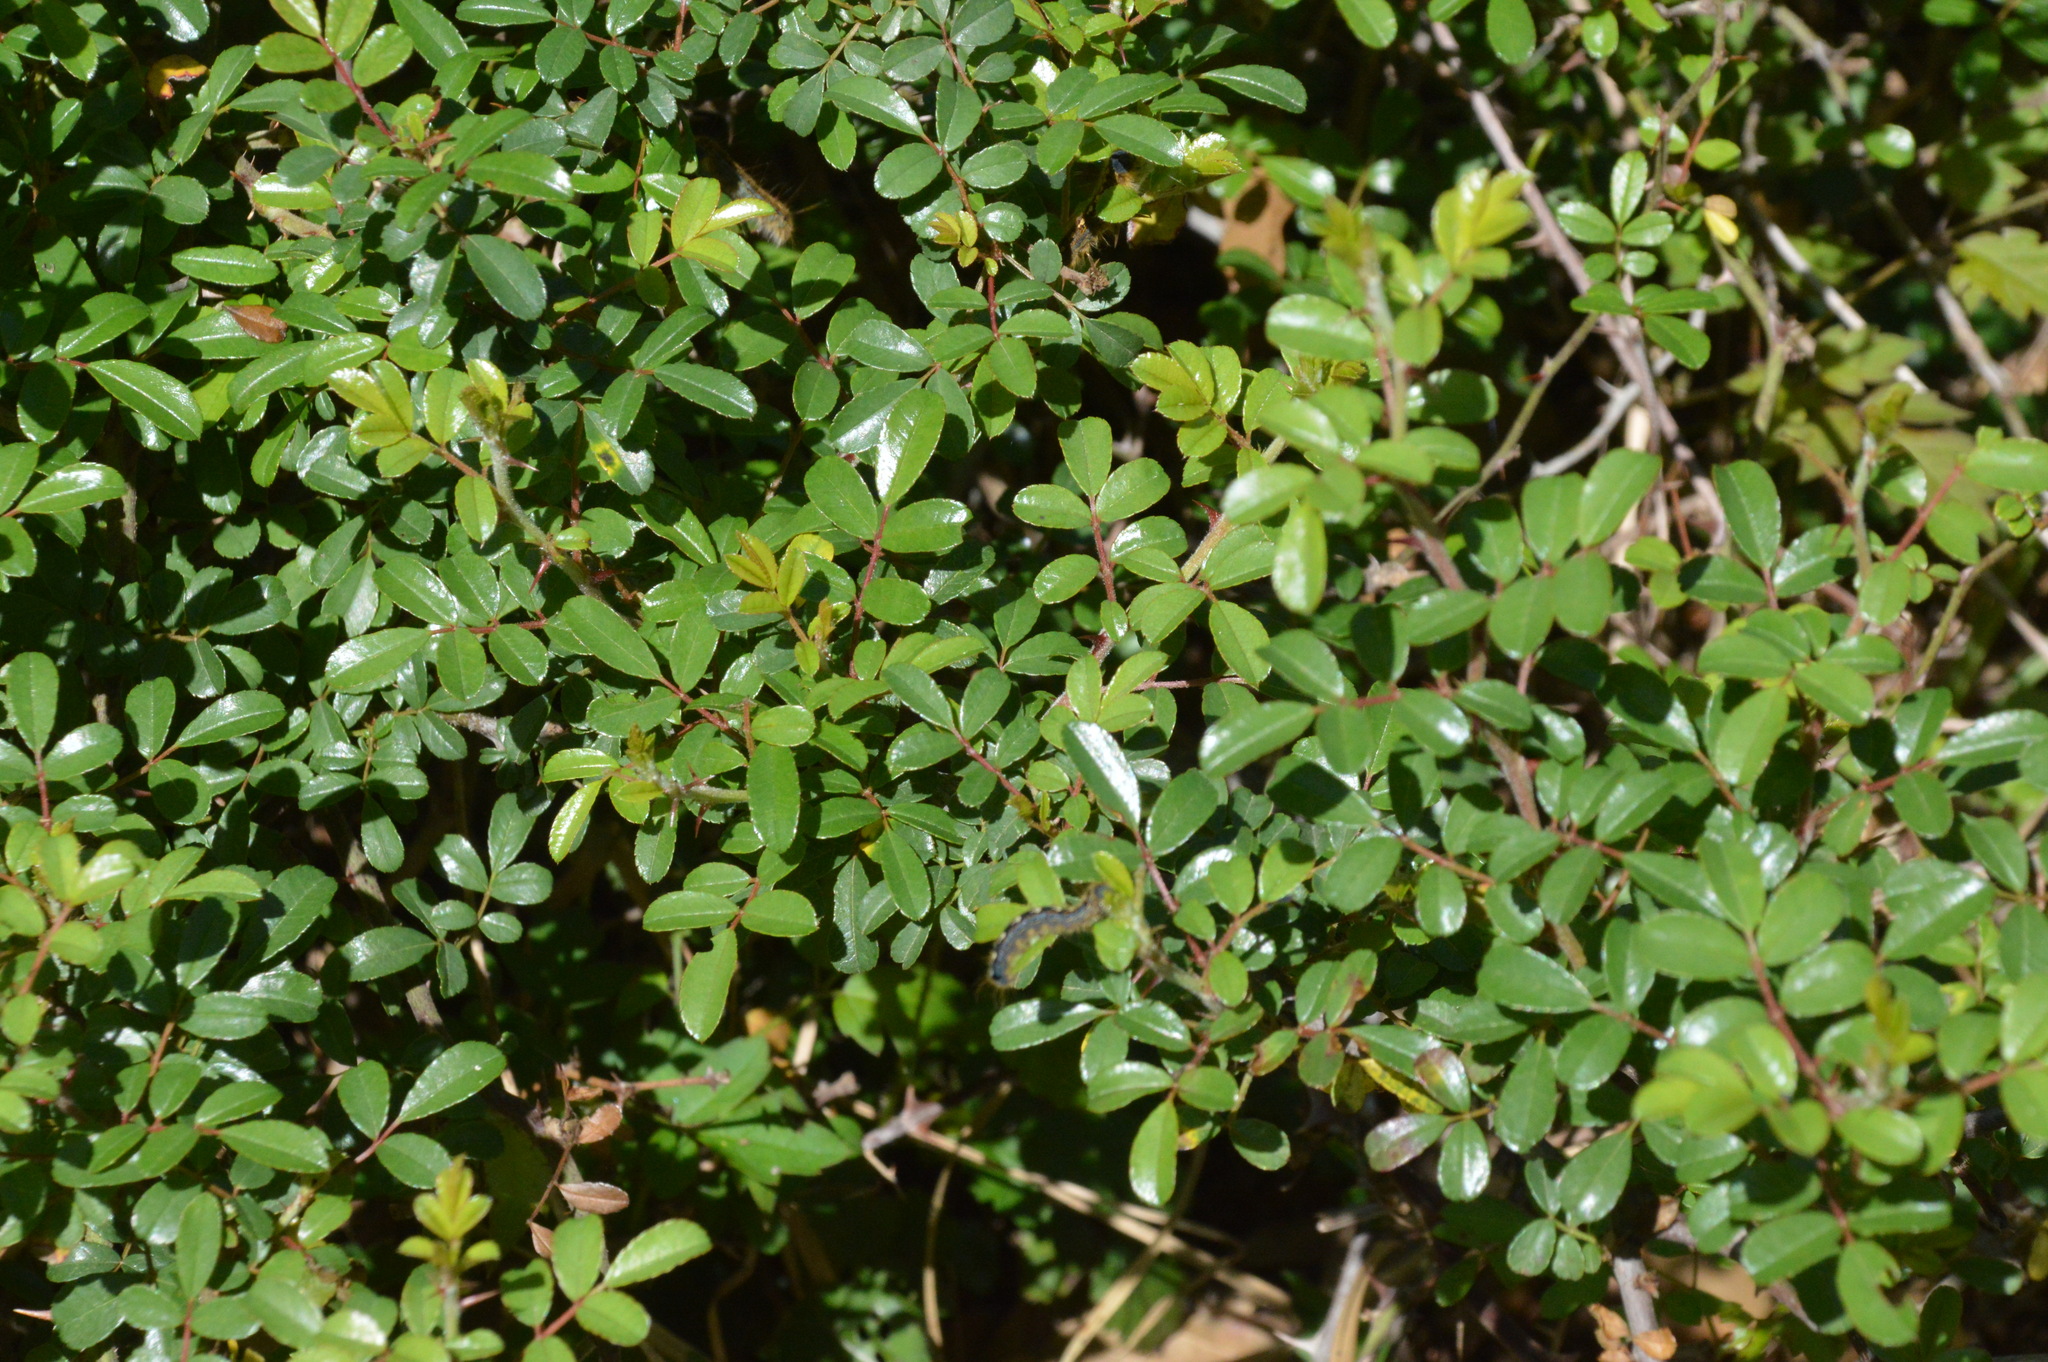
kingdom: Plantae
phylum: Tracheophyta
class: Magnoliopsida
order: Rosales
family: Rosaceae
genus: Rosa
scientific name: Rosa bracteata
